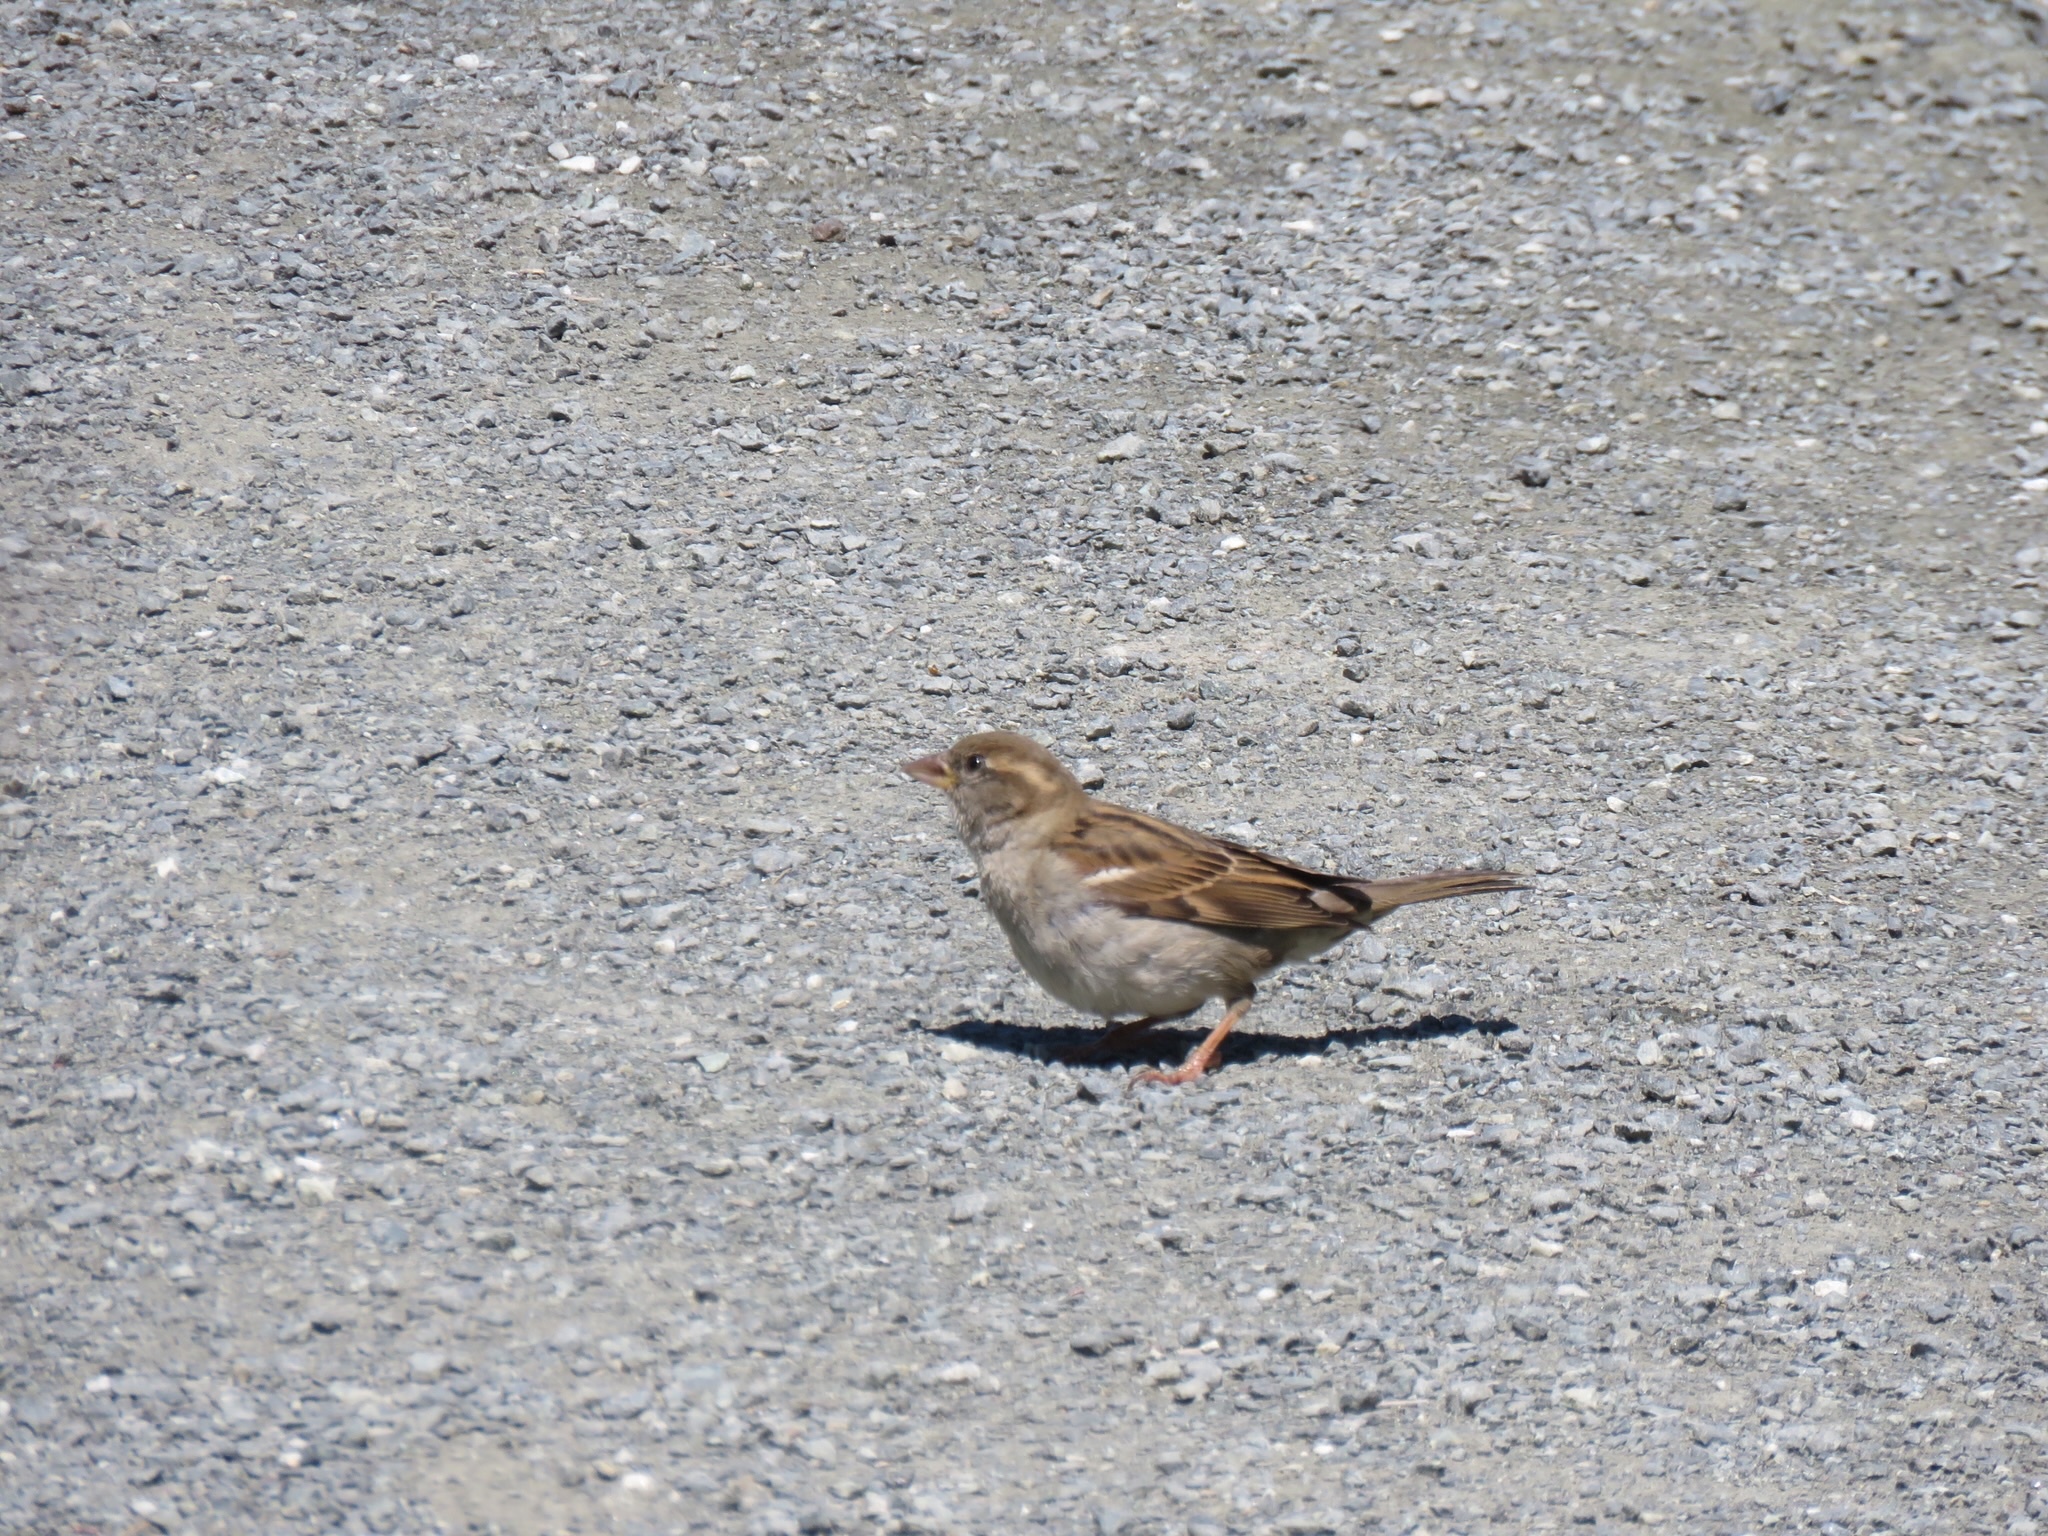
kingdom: Animalia
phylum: Chordata
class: Aves
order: Passeriformes
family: Passeridae
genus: Passer
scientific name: Passer domesticus
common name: House sparrow
